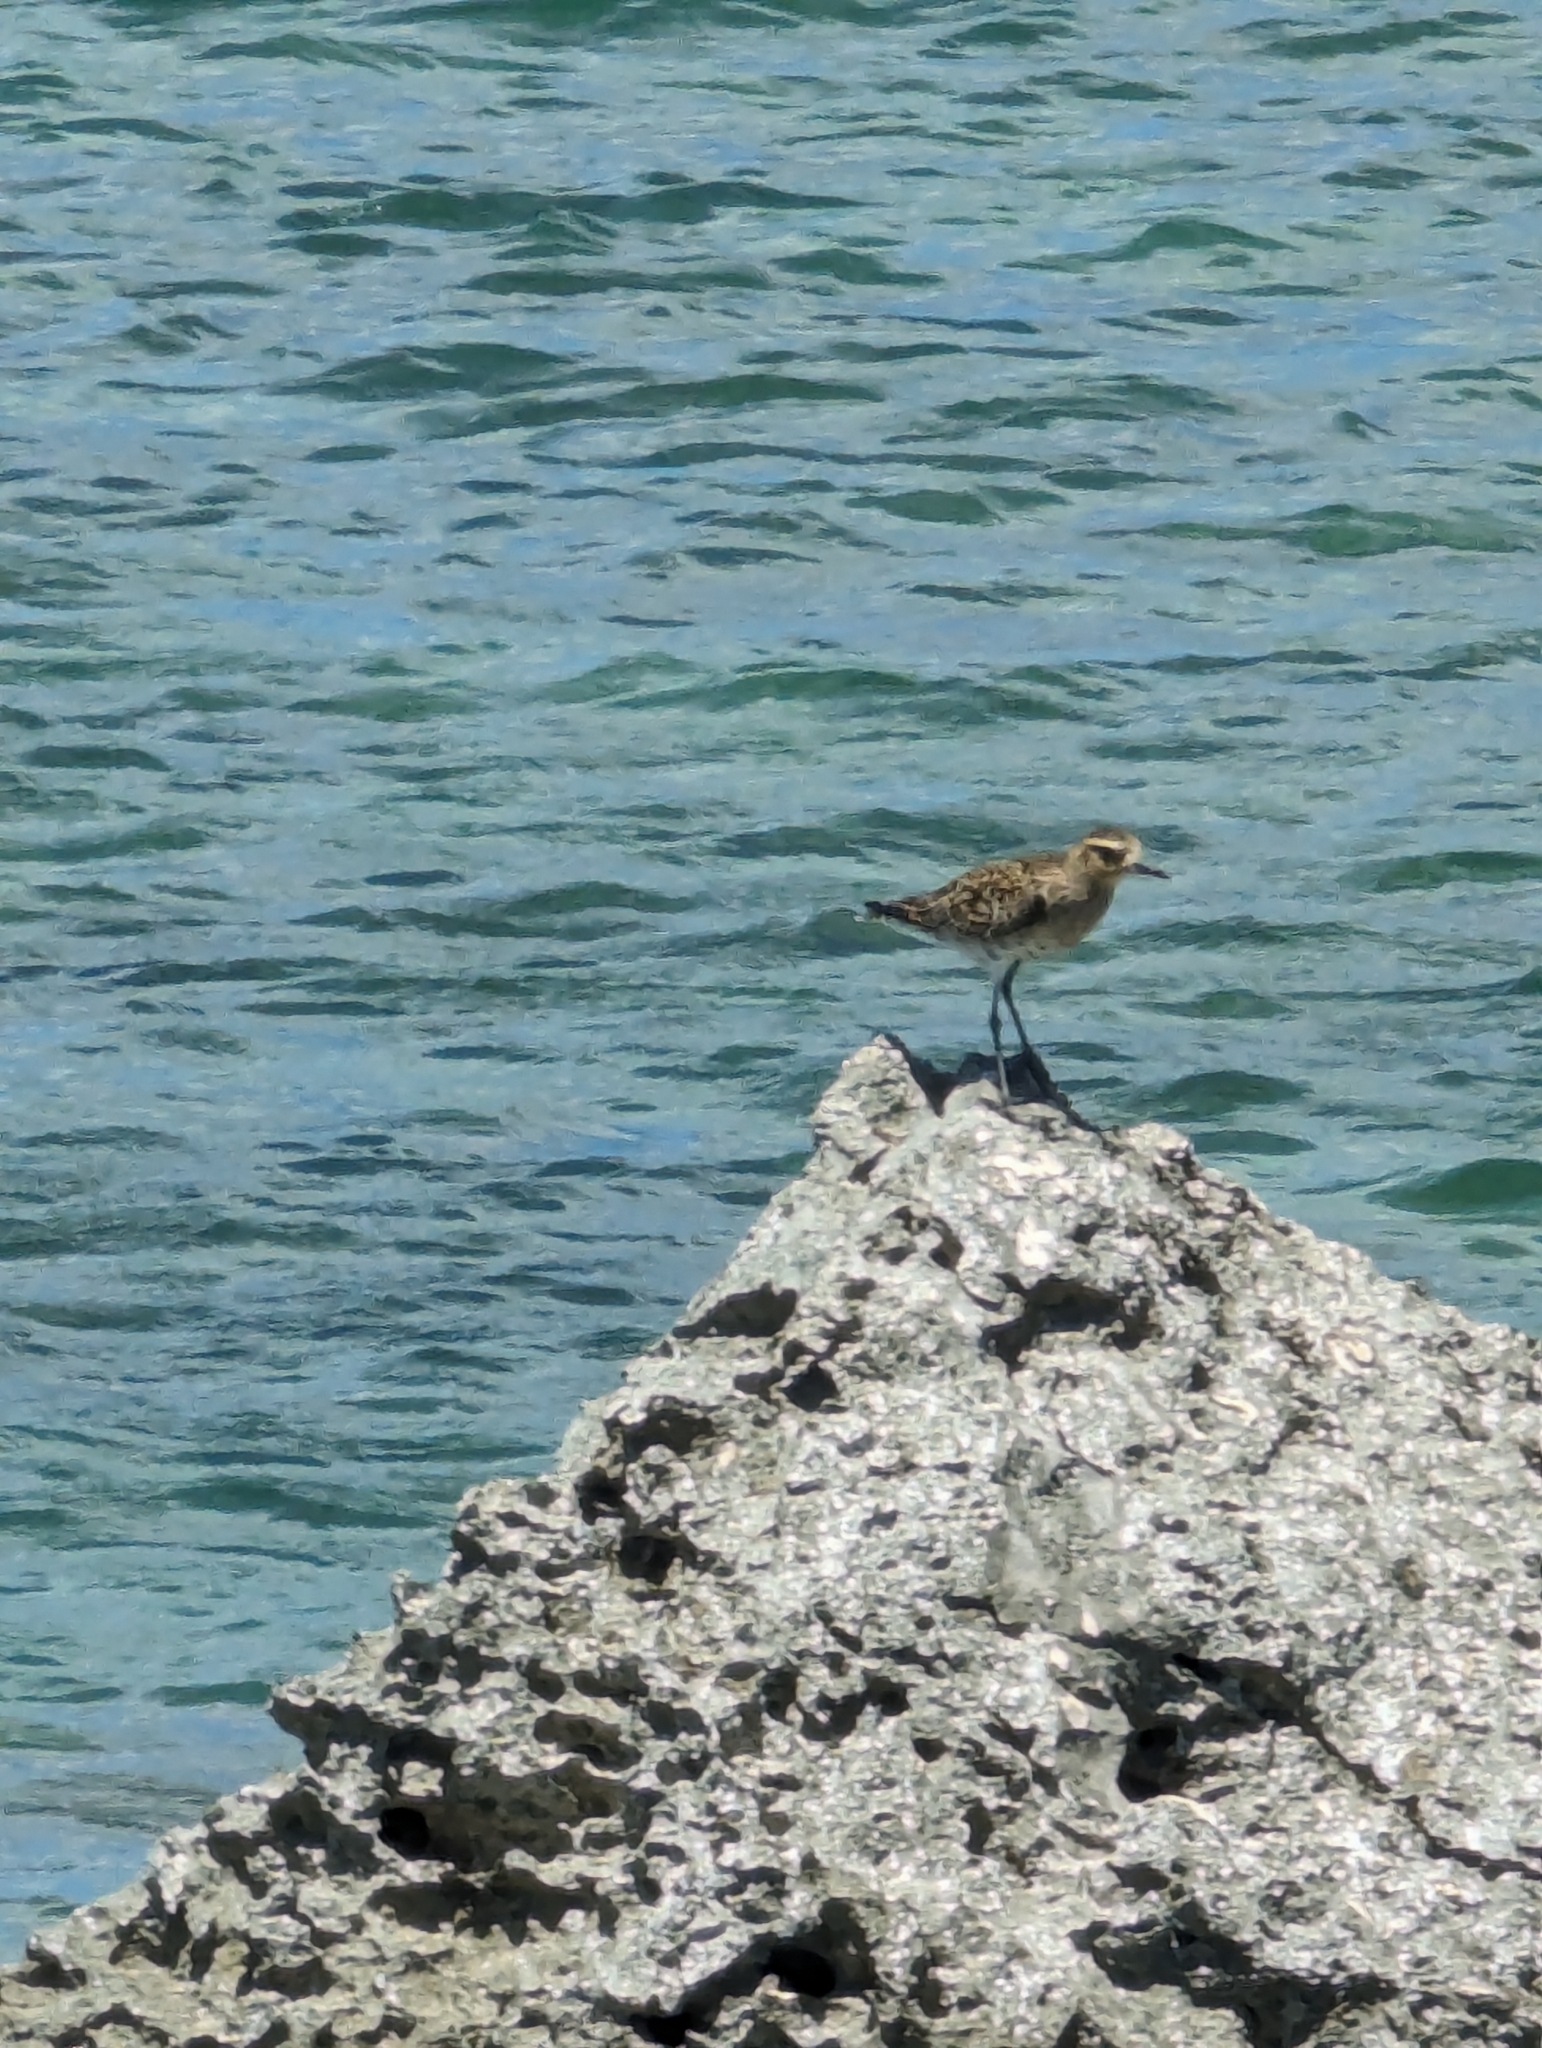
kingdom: Animalia
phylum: Chordata
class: Aves
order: Charadriiformes
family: Charadriidae
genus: Pluvialis
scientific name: Pluvialis fulva
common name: Pacific golden plover
